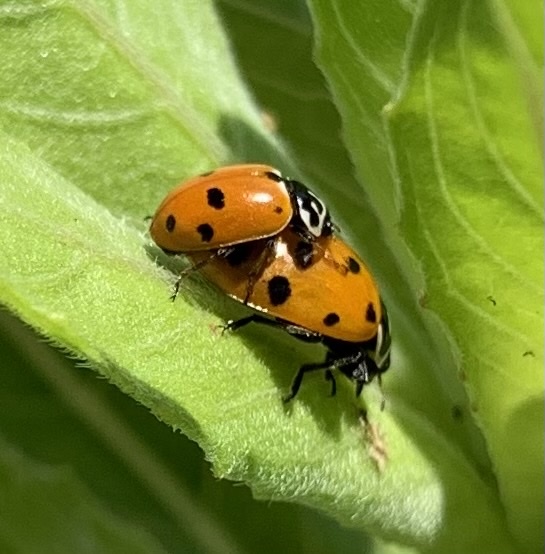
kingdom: Animalia
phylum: Arthropoda
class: Insecta
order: Coleoptera
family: Coccinellidae
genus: Hippodamia
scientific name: Hippodamia variegata
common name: Ladybird beetle
